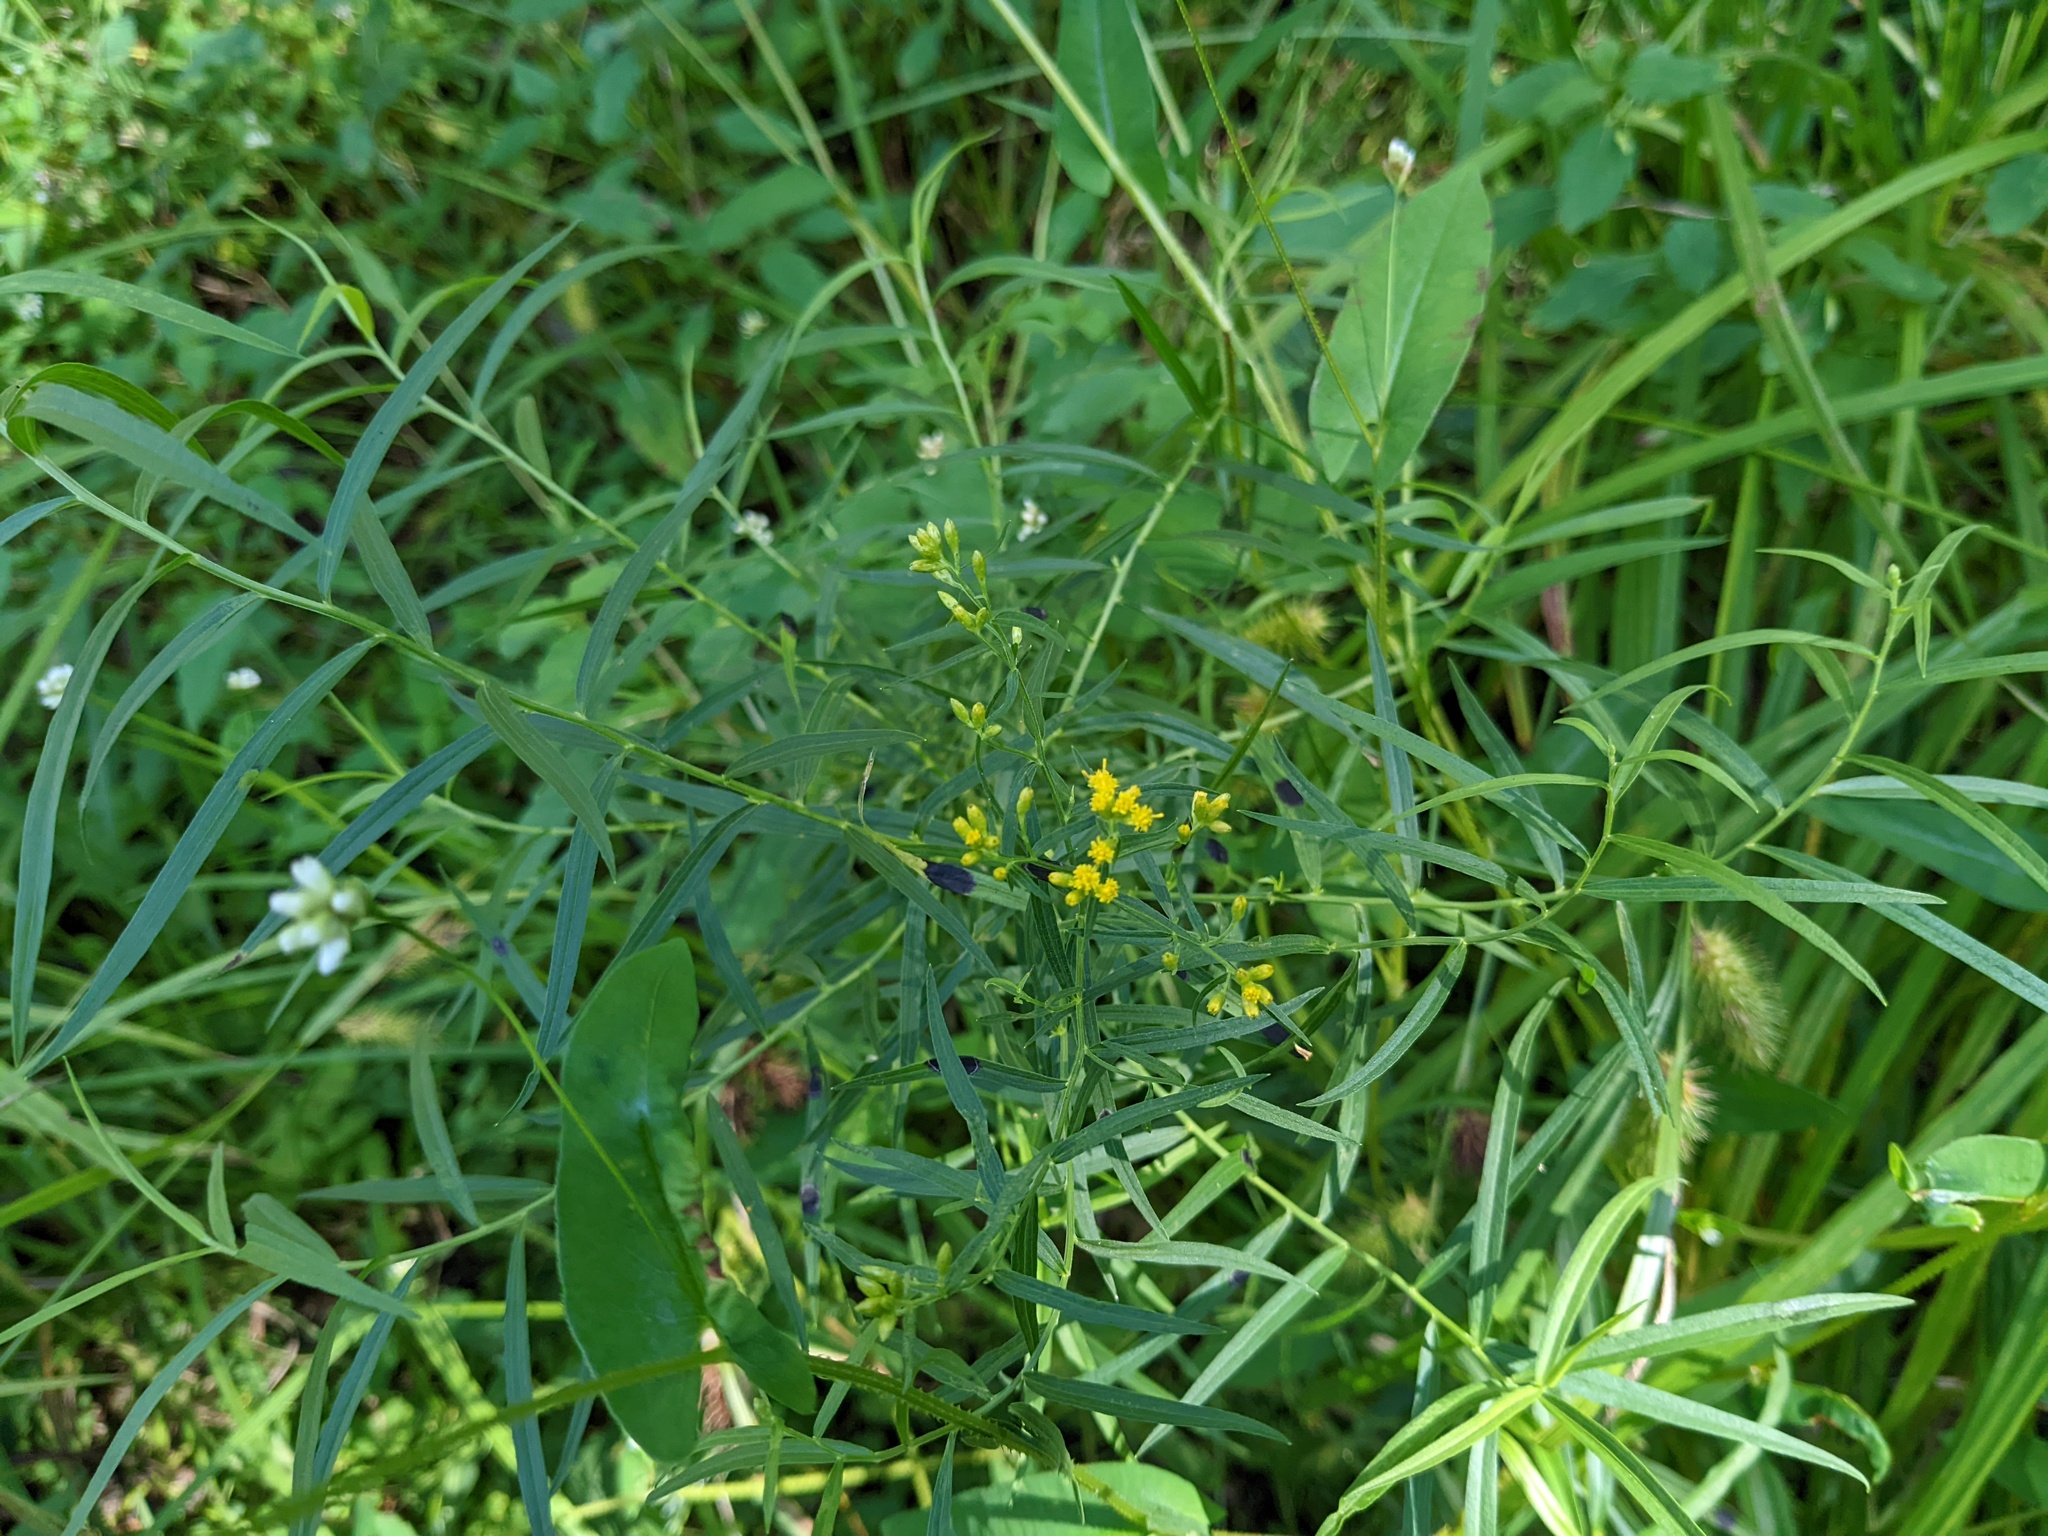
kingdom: Plantae
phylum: Tracheophyta
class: Magnoliopsida
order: Asterales
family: Asteraceae
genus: Euthamia
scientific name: Euthamia graminifolia
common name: Common goldentop
